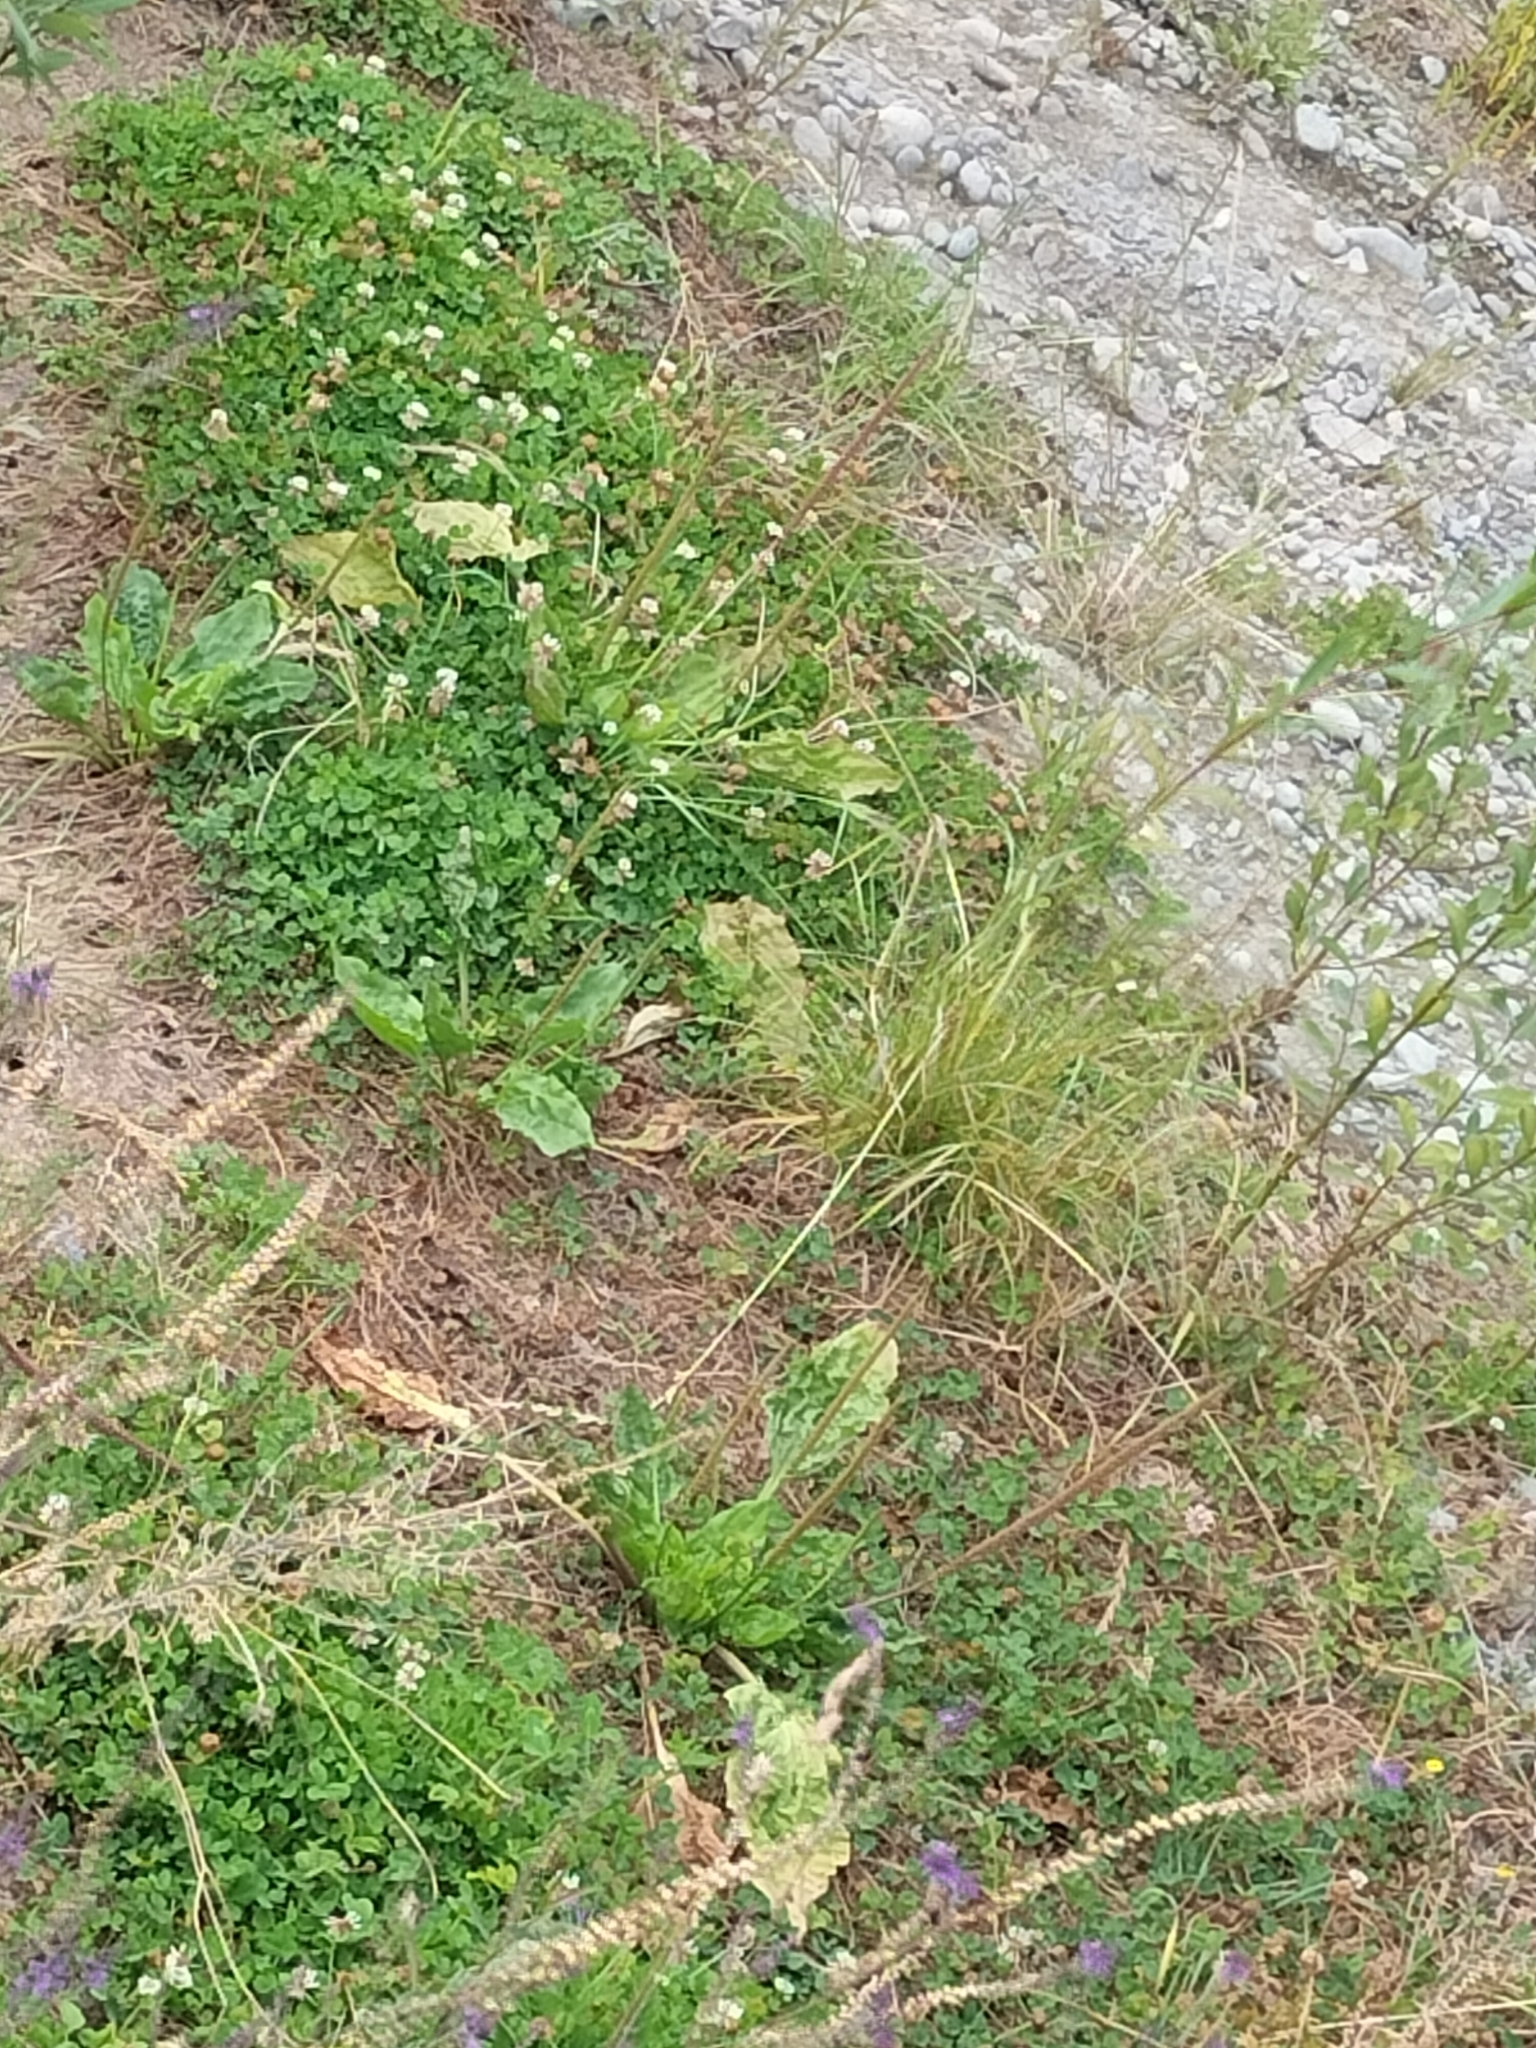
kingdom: Plantae
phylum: Tracheophyta
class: Magnoliopsida
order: Lamiales
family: Plantaginaceae
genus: Plantago
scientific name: Plantago major
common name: Common plantain
